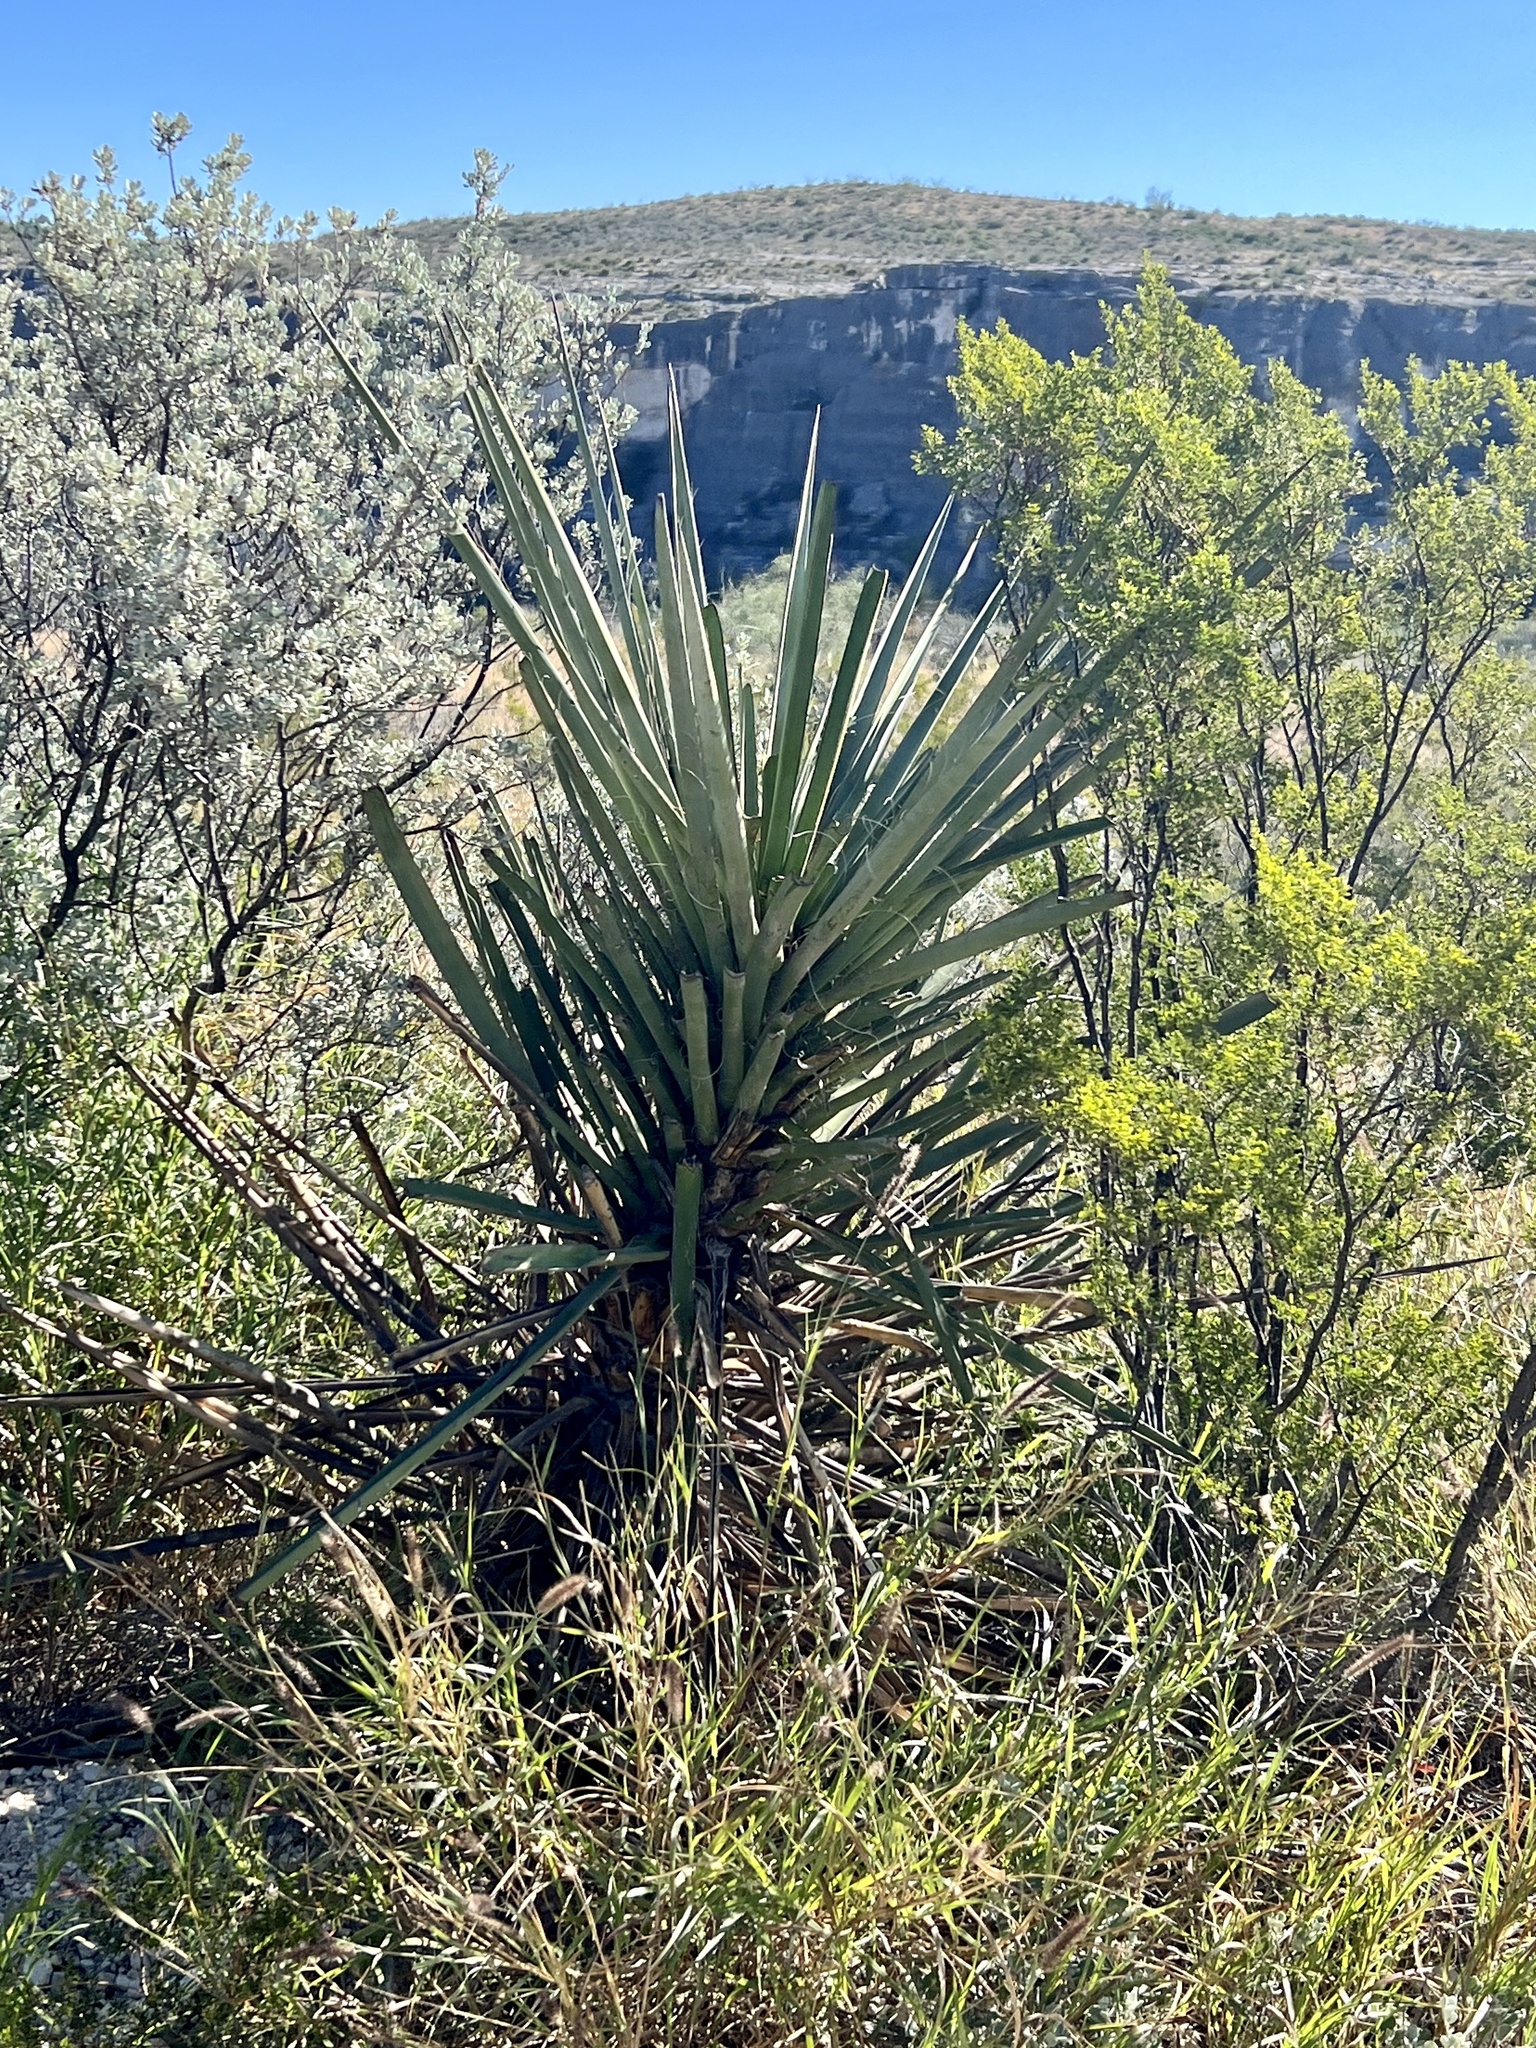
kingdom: Plantae
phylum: Tracheophyta
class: Liliopsida
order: Asparagales
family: Asparagaceae
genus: Yucca
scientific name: Yucca treculiana
